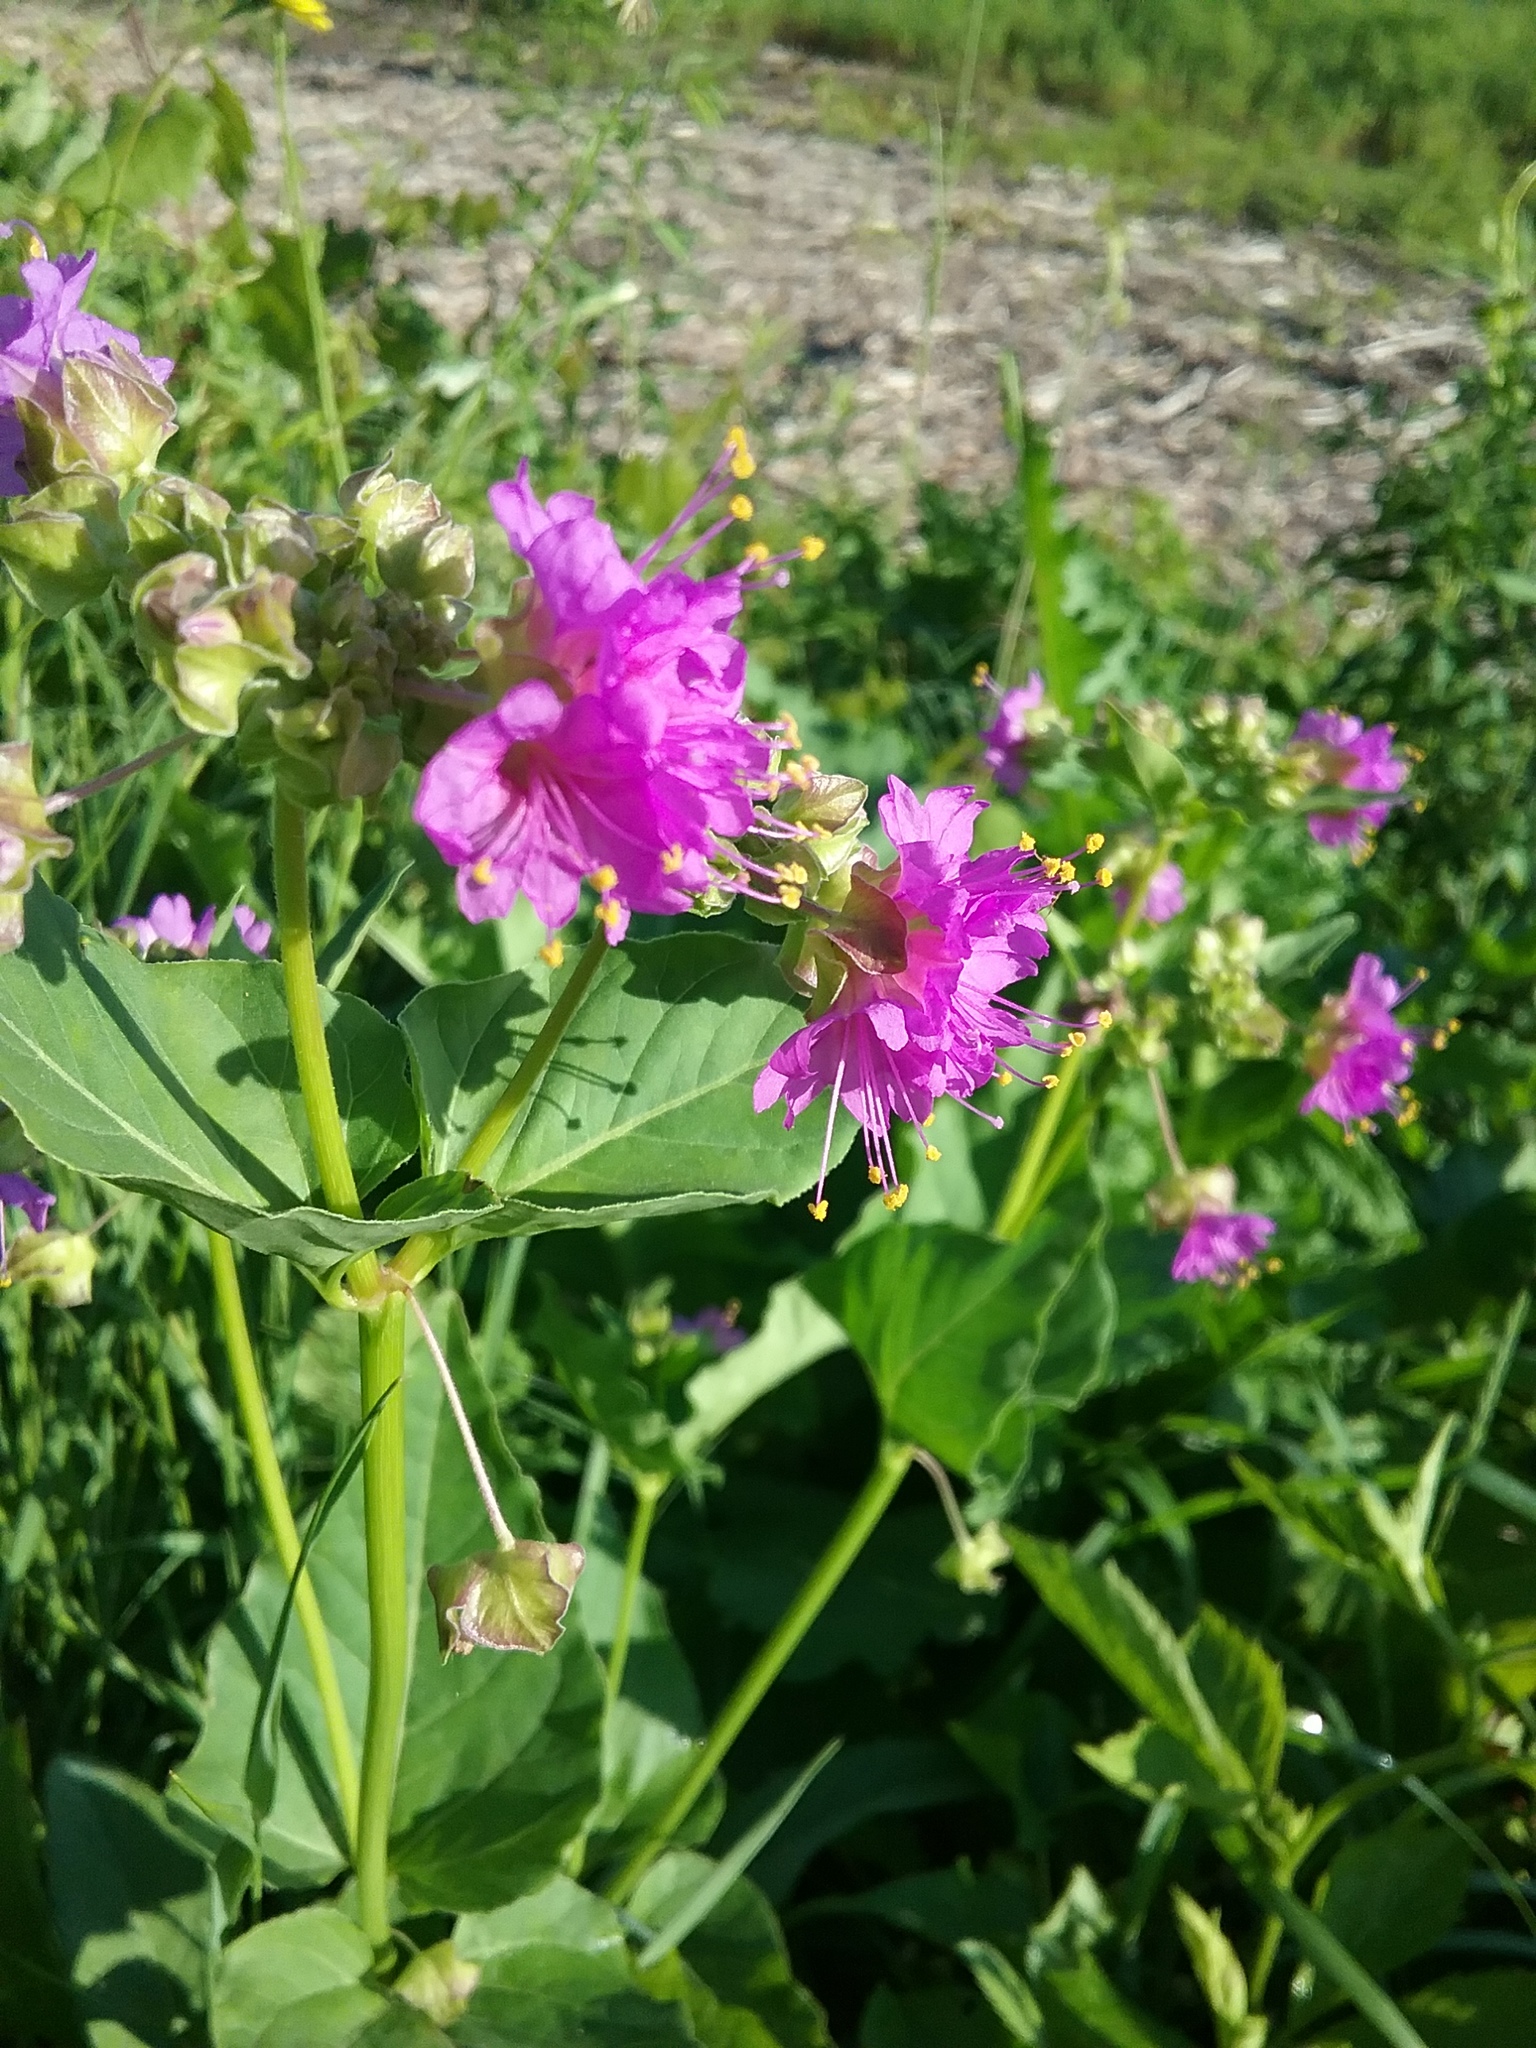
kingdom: Plantae
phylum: Tracheophyta
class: Magnoliopsida
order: Caryophyllales
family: Nyctaginaceae
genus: Mirabilis
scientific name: Mirabilis nyctaginea
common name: Umbrella wort
